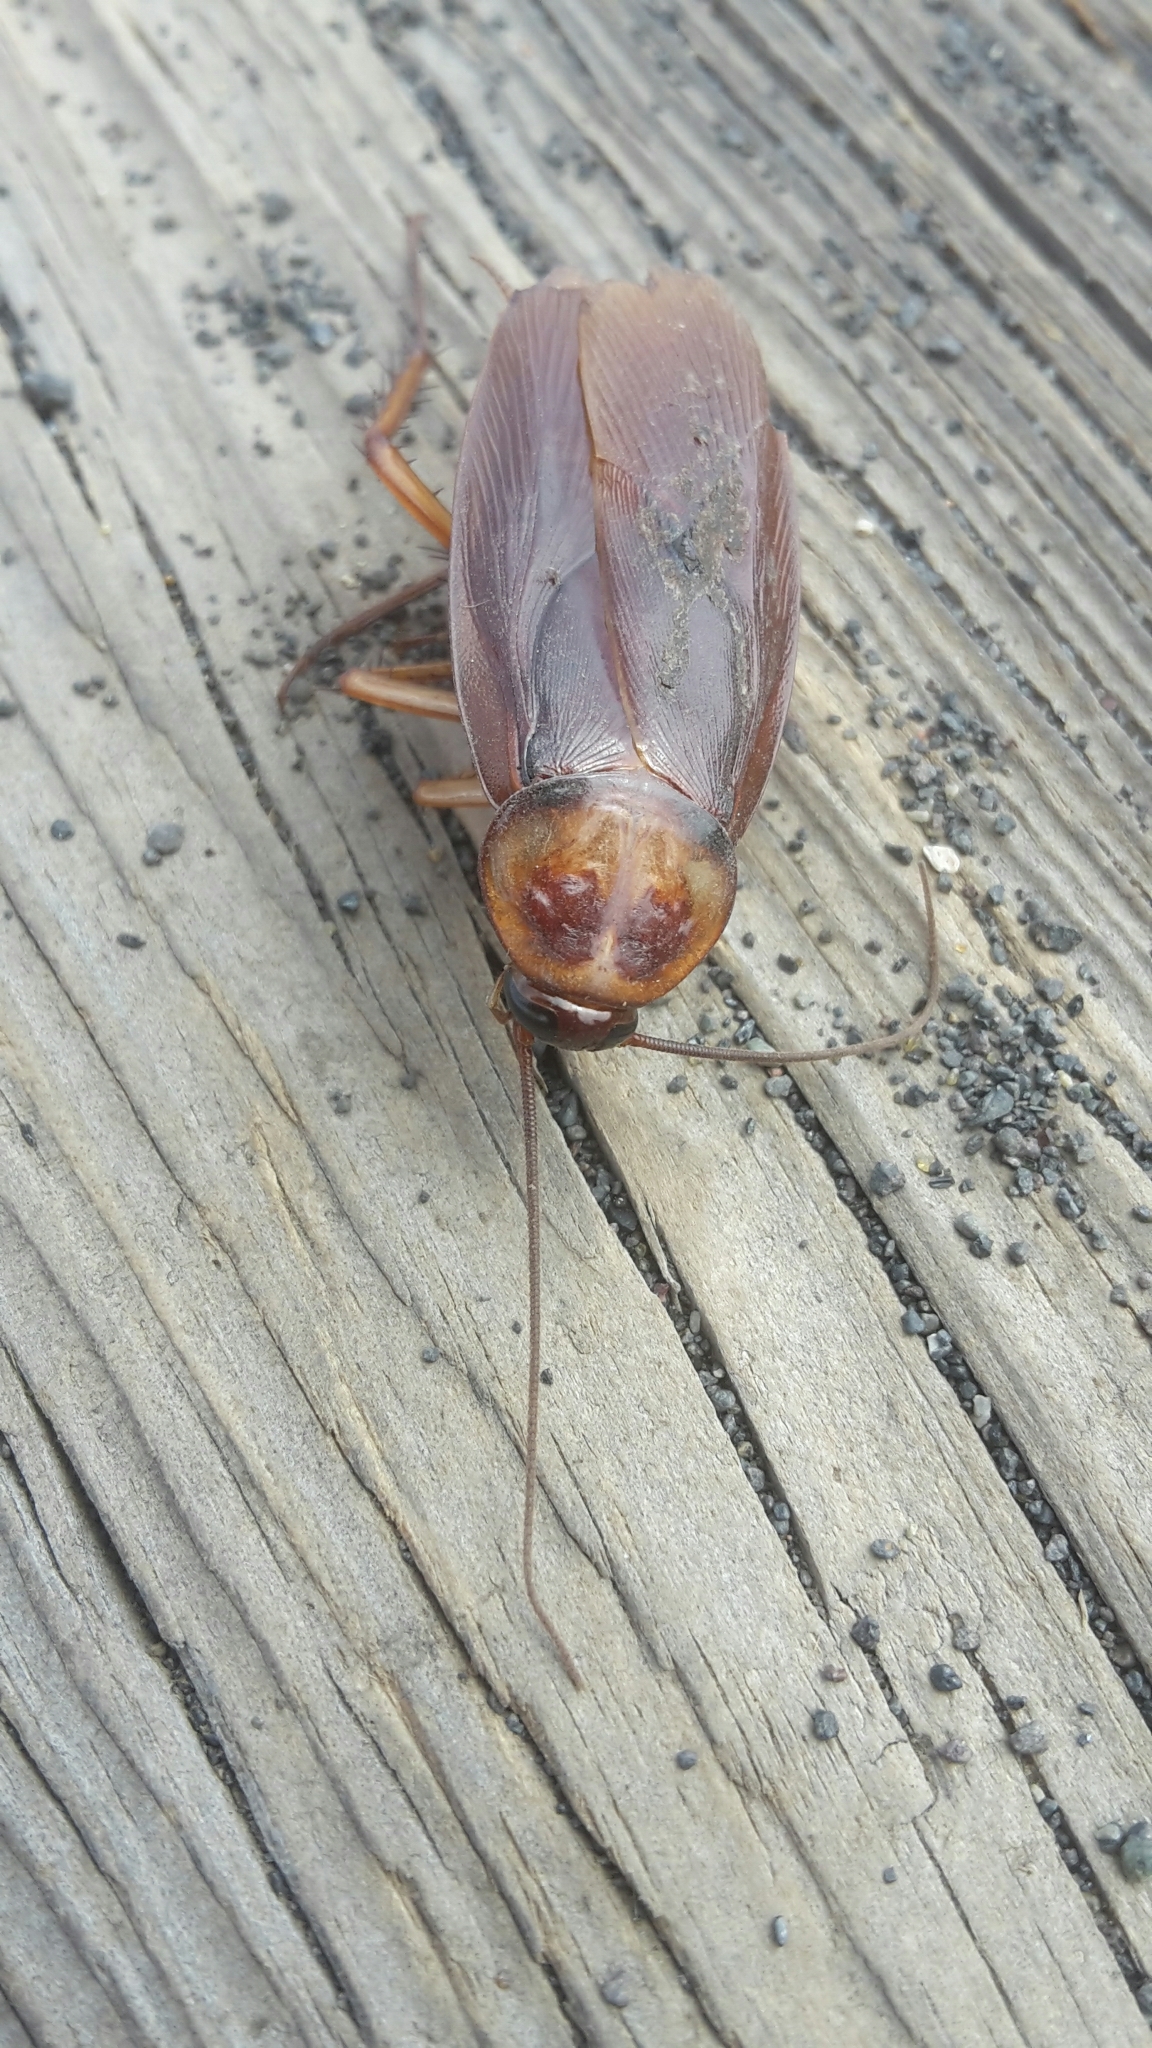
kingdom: Animalia
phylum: Arthropoda
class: Insecta
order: Blattodea
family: Blattidae
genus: Periplaneta
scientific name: Periplaneta americana
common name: American cockroach
